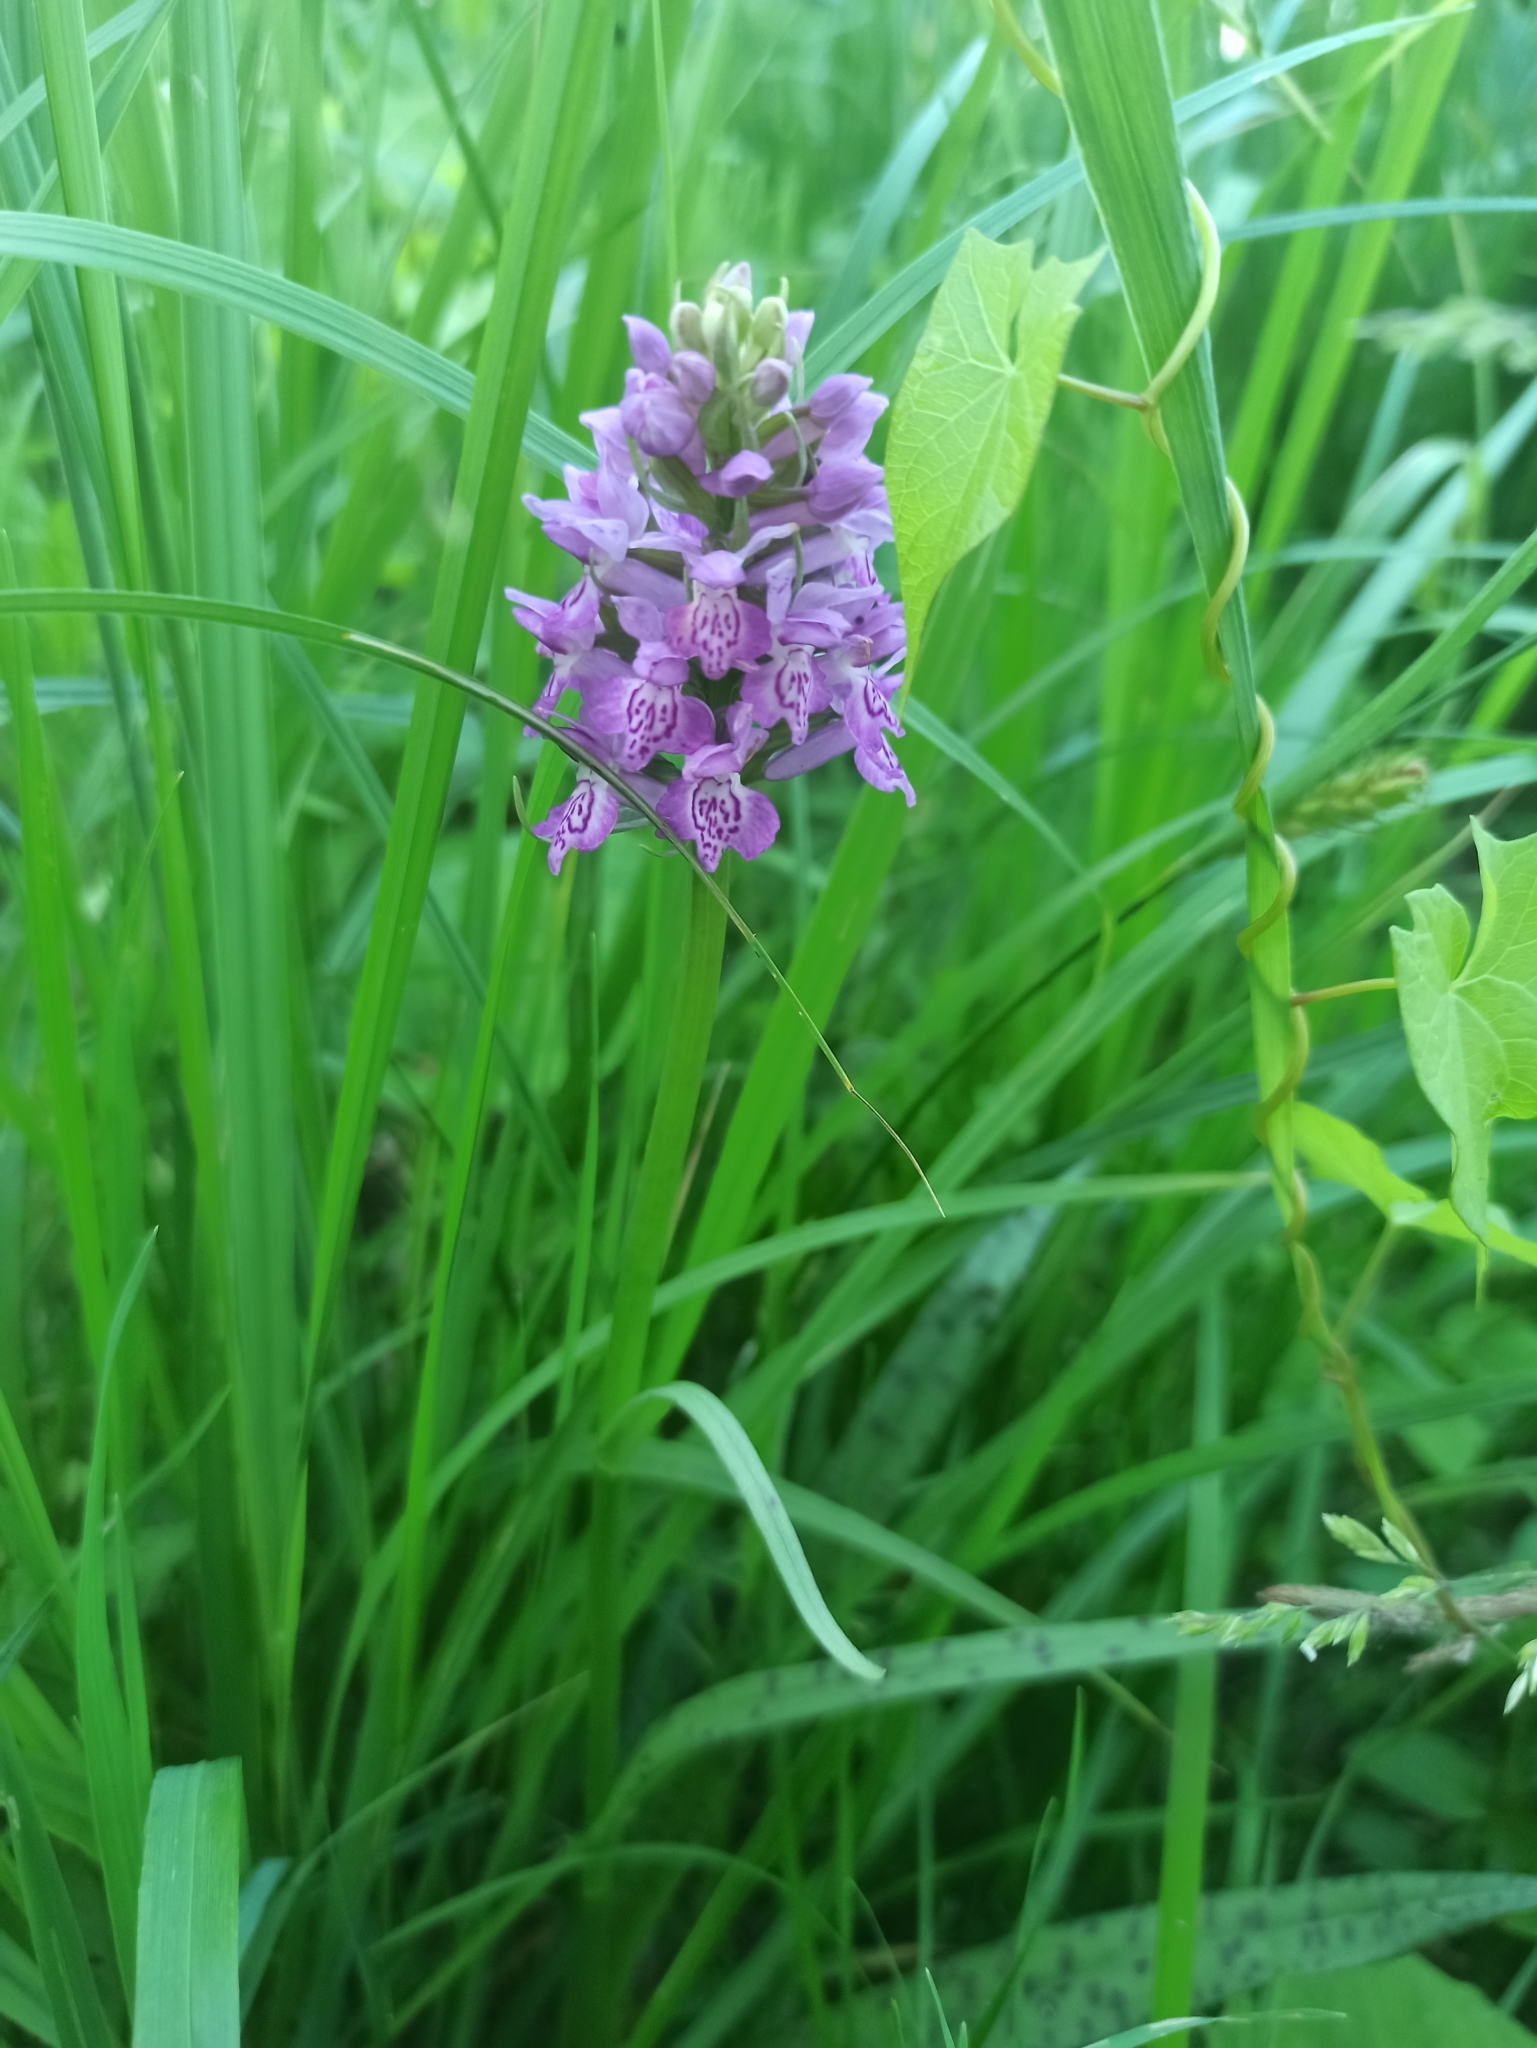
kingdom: Plantae
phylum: Tracheophyta
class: Liliopsida
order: Asparagales
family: Orchidaceae
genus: Dactylorhiza
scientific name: Dactylorhiza majalis
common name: Marsh orchid
